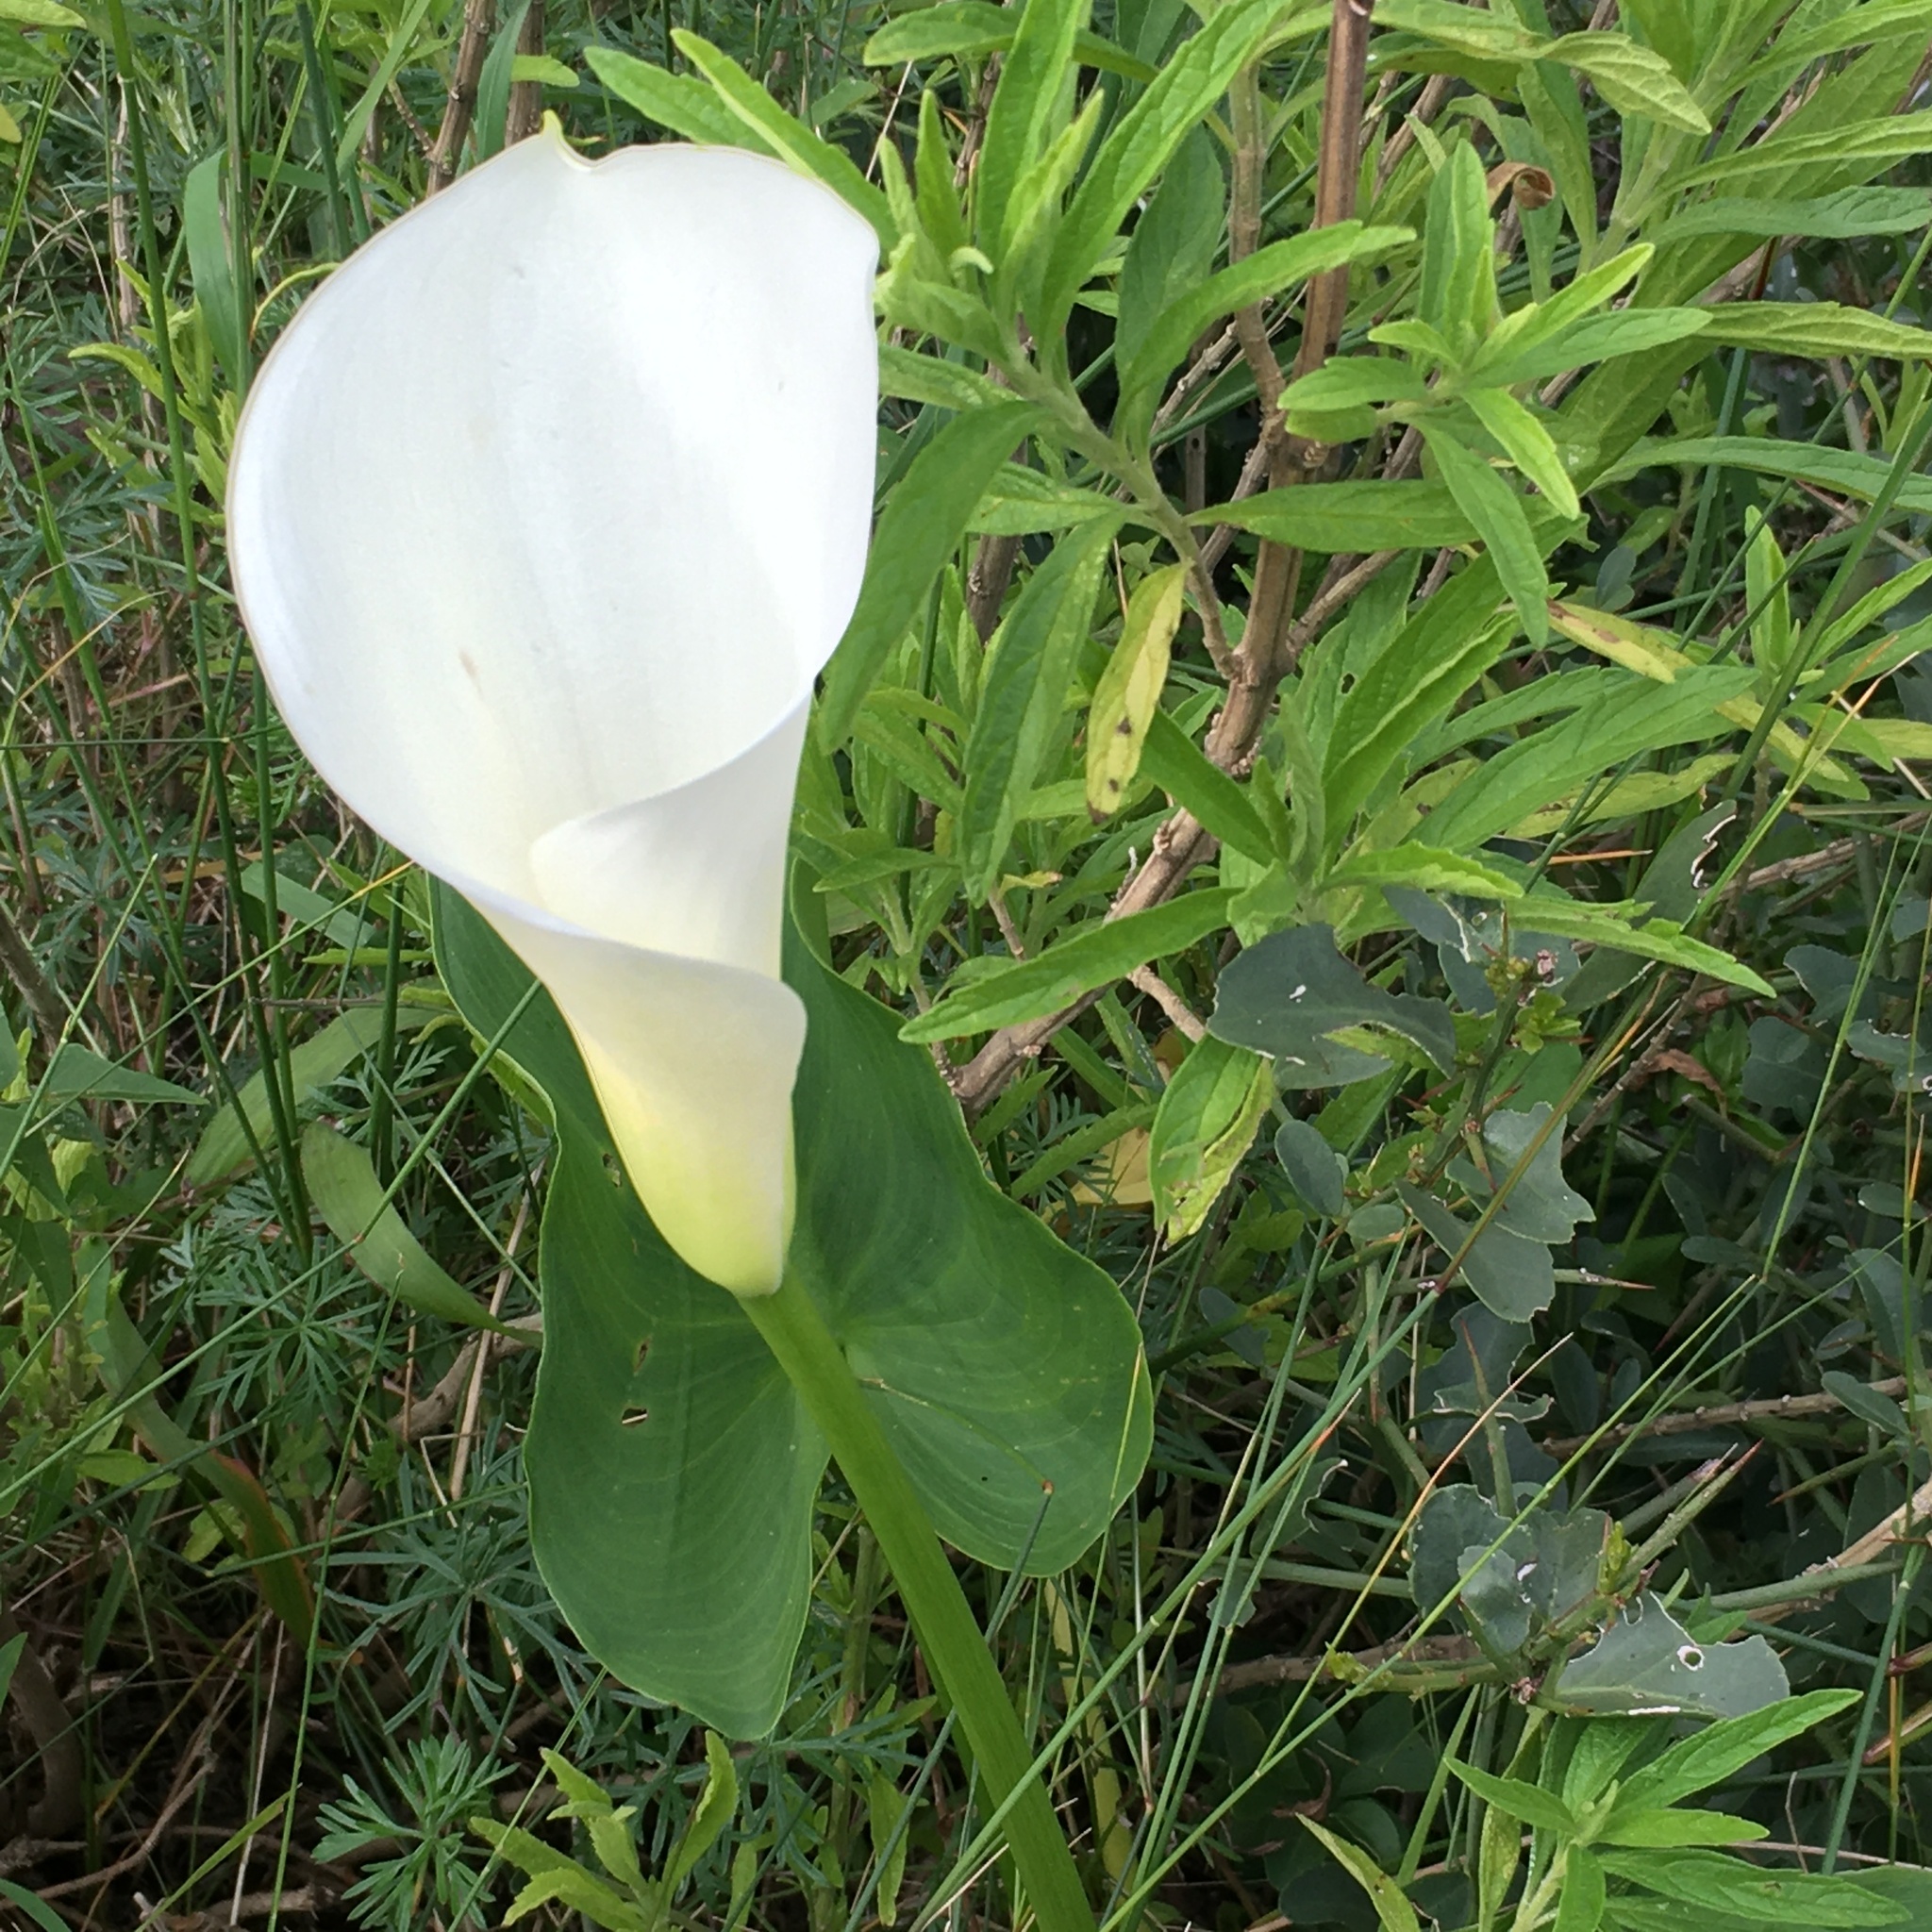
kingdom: Plantae
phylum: Tracheophyta
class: Liliopsida
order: Alismatales
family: Araceae
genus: Zantedeschia
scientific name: Zantedeschia aethiopica
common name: Altar-lily
